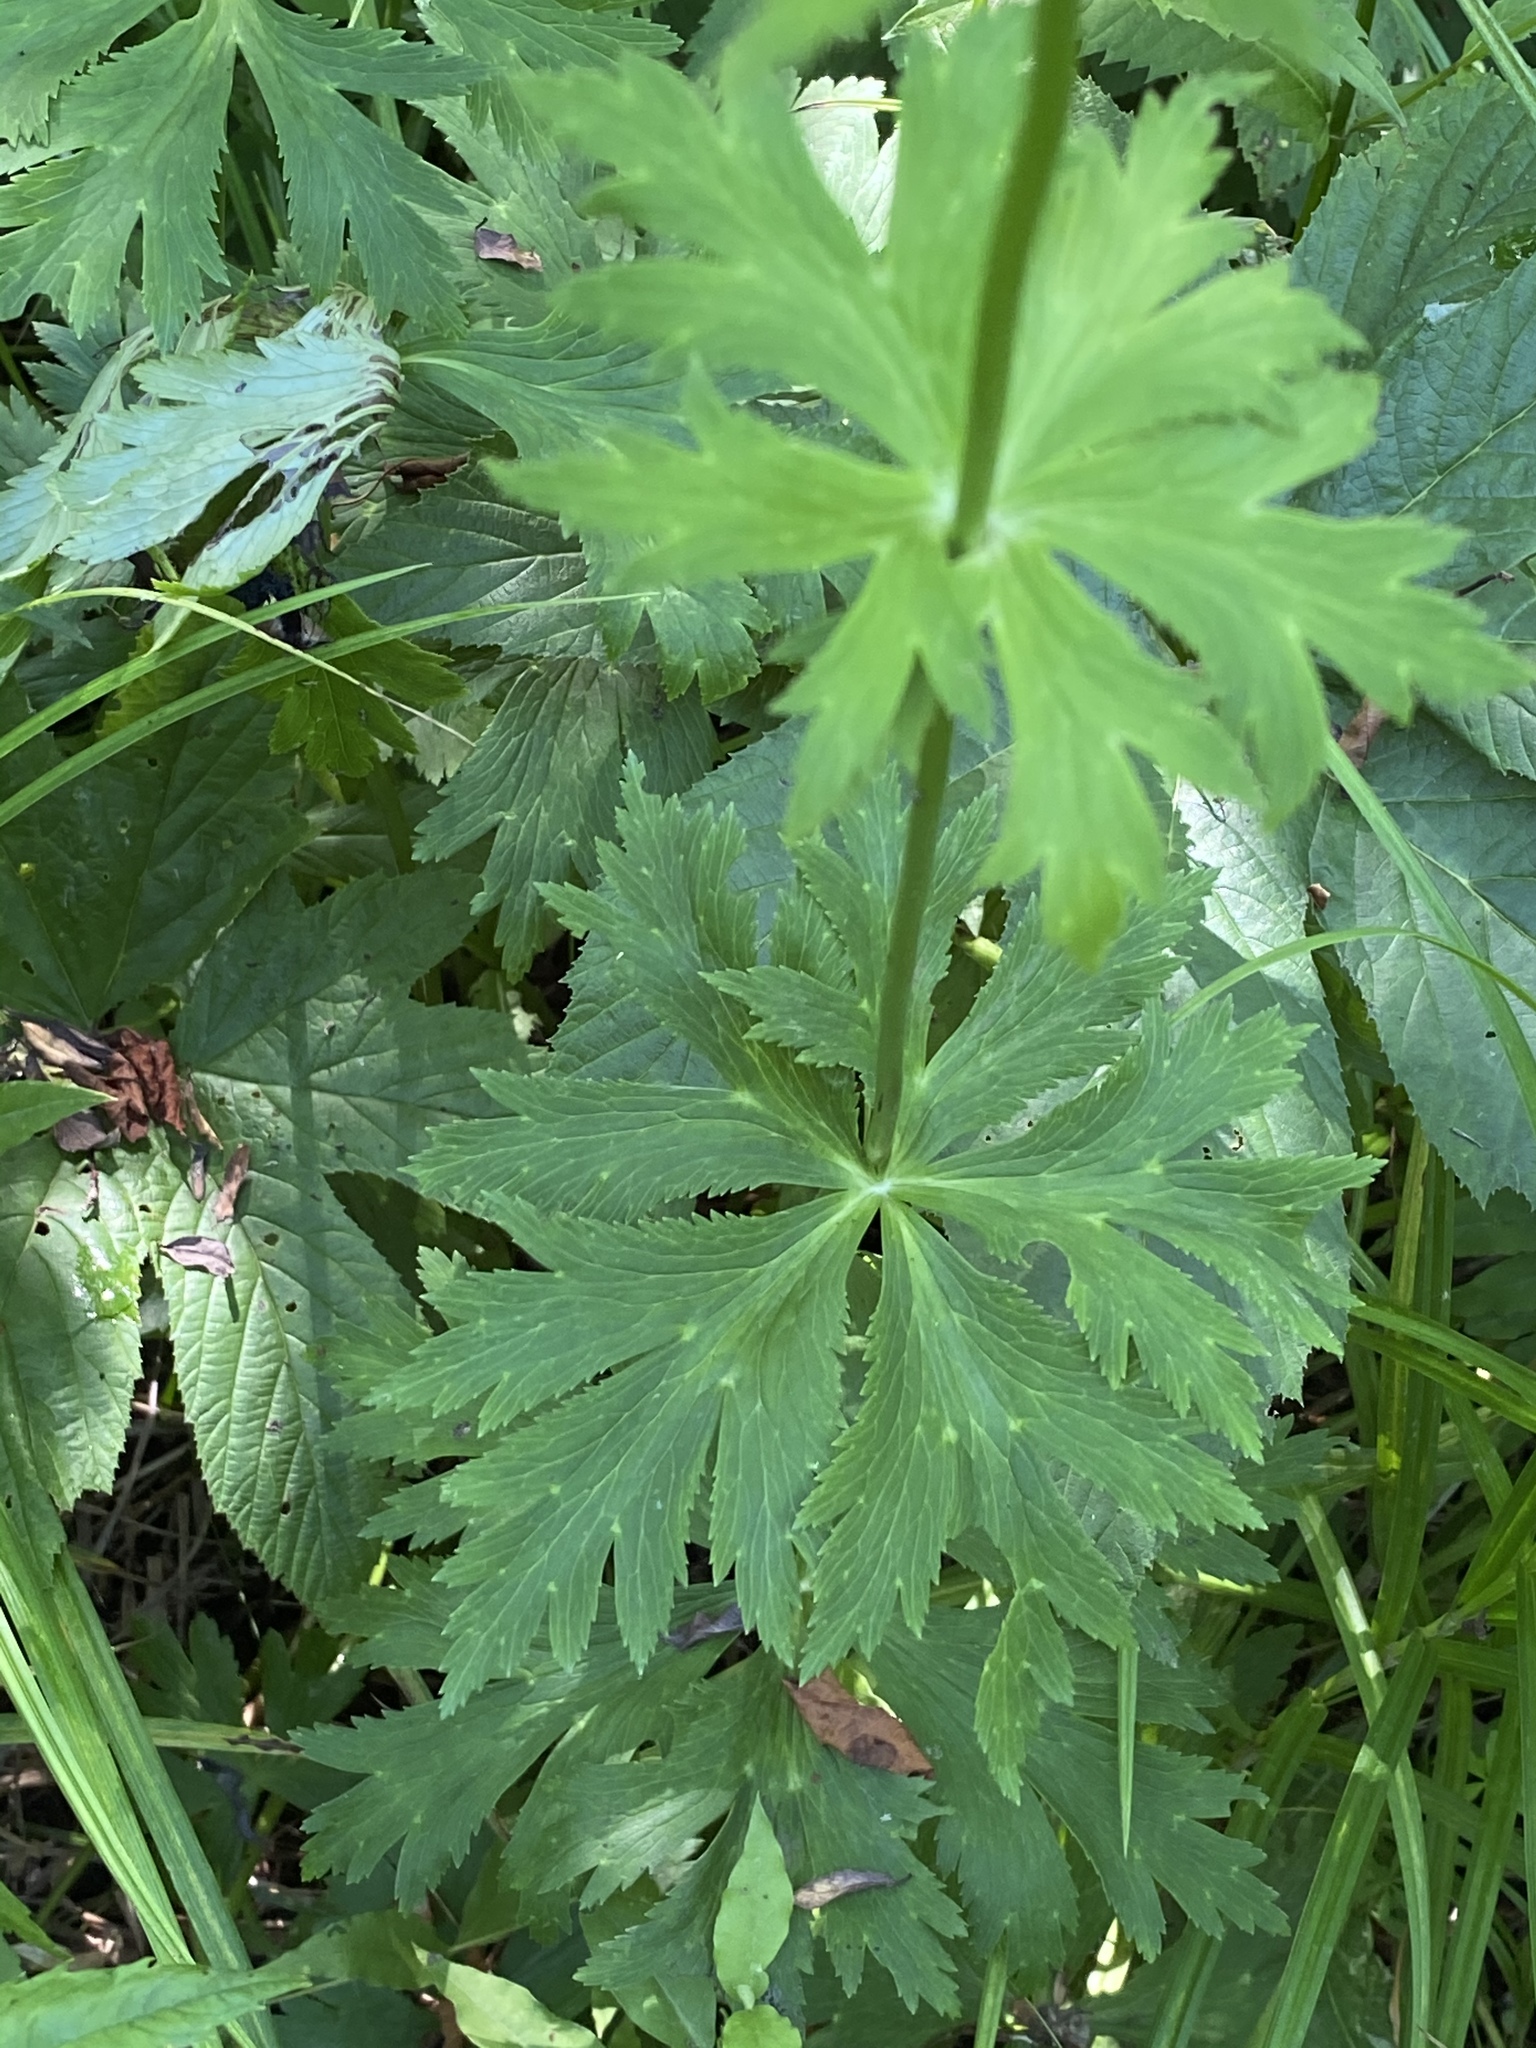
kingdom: Plantae
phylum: Tracheophyta
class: Magnoliopsida
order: Ranunculales
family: Ranunculaceae
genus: Trollius
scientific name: Trollius chinensis
